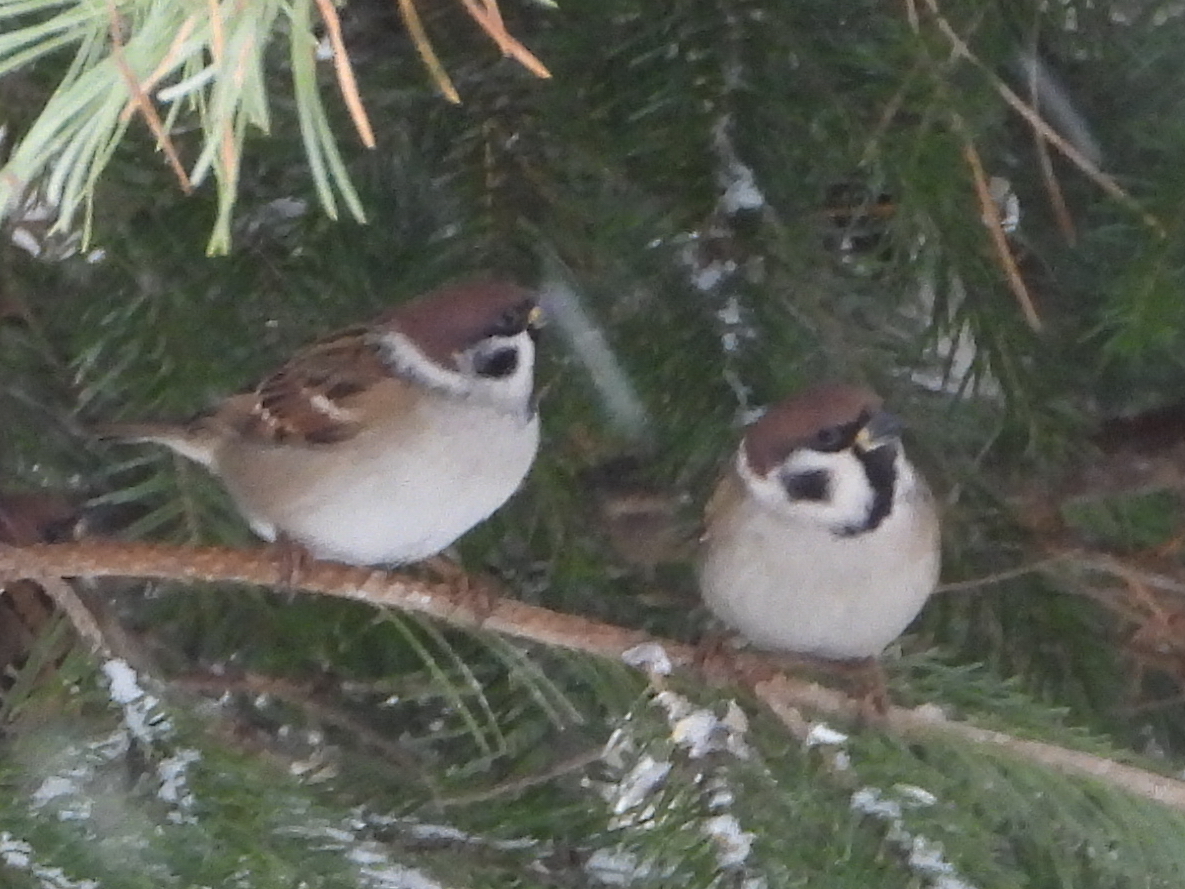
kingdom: Animalia
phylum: Chordata
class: Aves
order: Passeriformes
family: Passeridae
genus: Passer
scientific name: Passer montanus
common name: Eurasian tree sparrow
